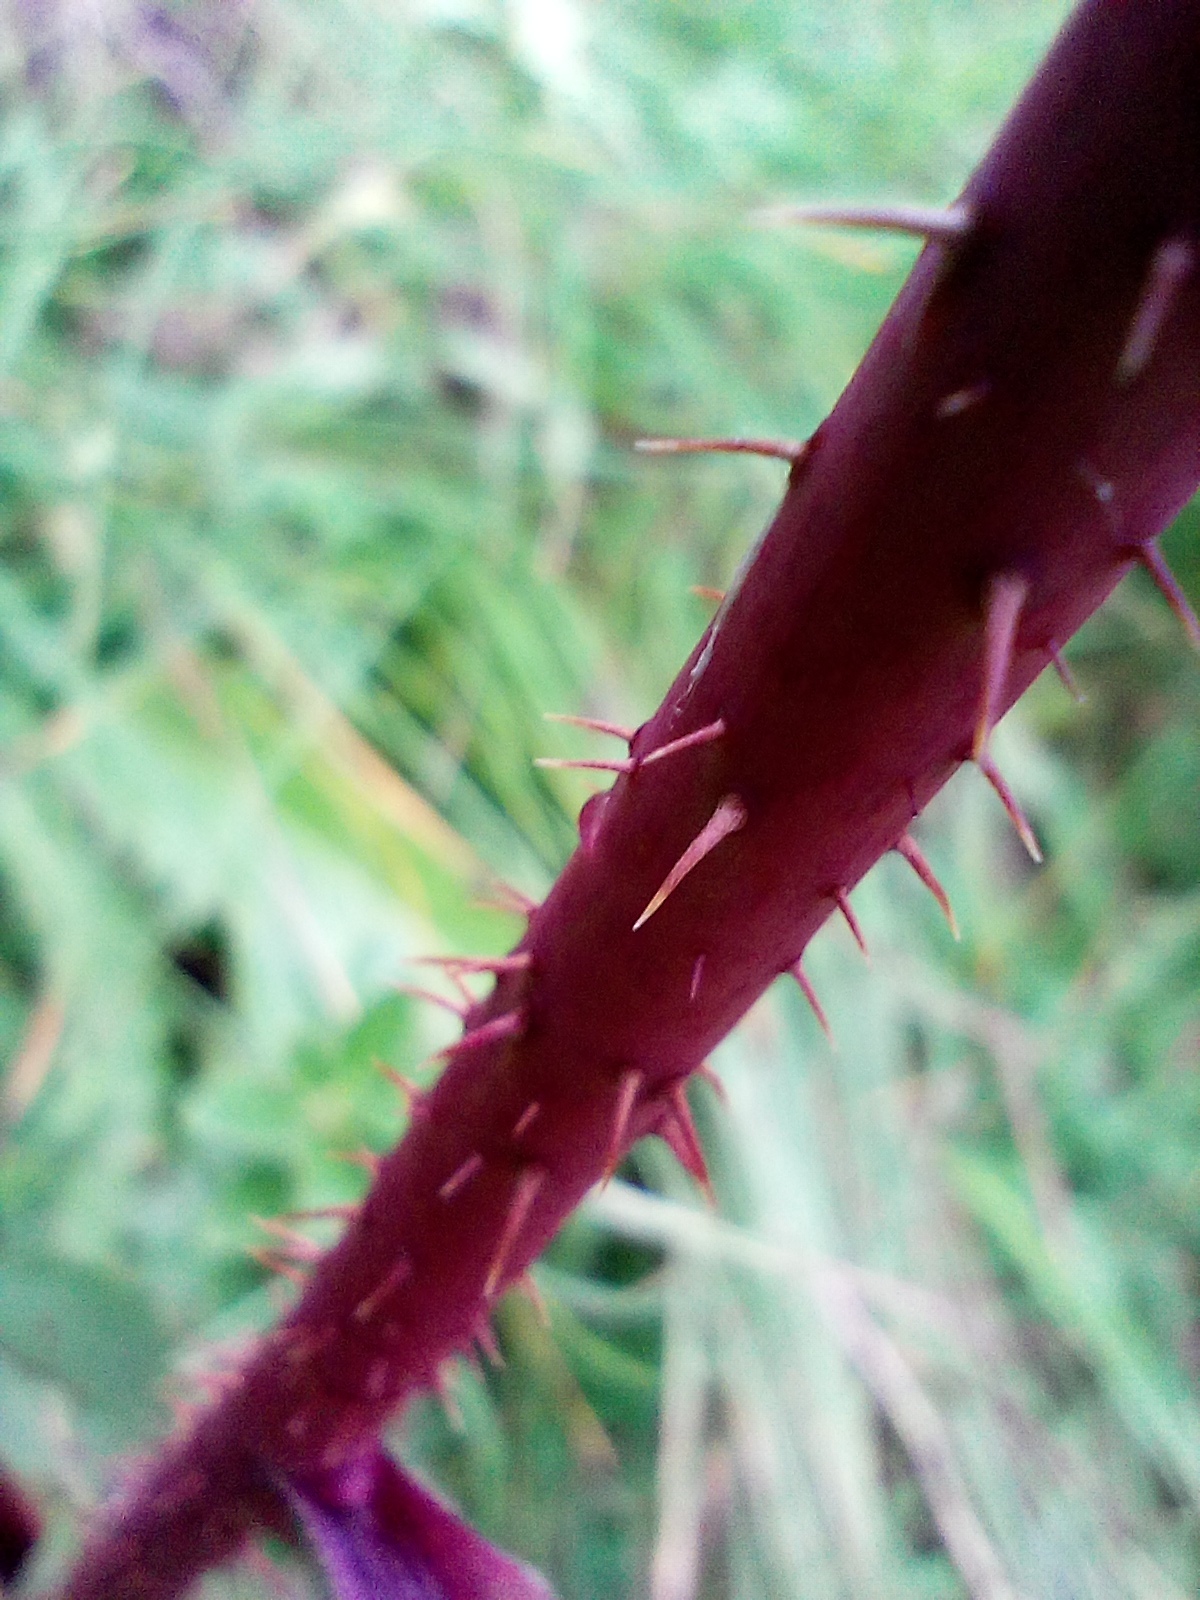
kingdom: Plantae
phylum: Tracheophyta
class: Magnoliopsida
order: Rosales
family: Rosaceae
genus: Rosa
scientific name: Rosa pendulina
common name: Alpine rose
